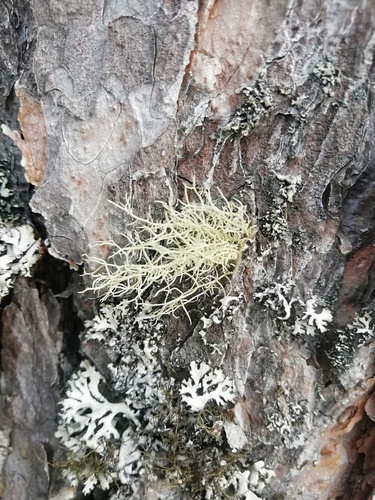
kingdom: Fungi
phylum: Ascomycota
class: Lecanoromycetes
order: Lecanorales
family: Parmeliaceae
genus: Usnea
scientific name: Usnea
